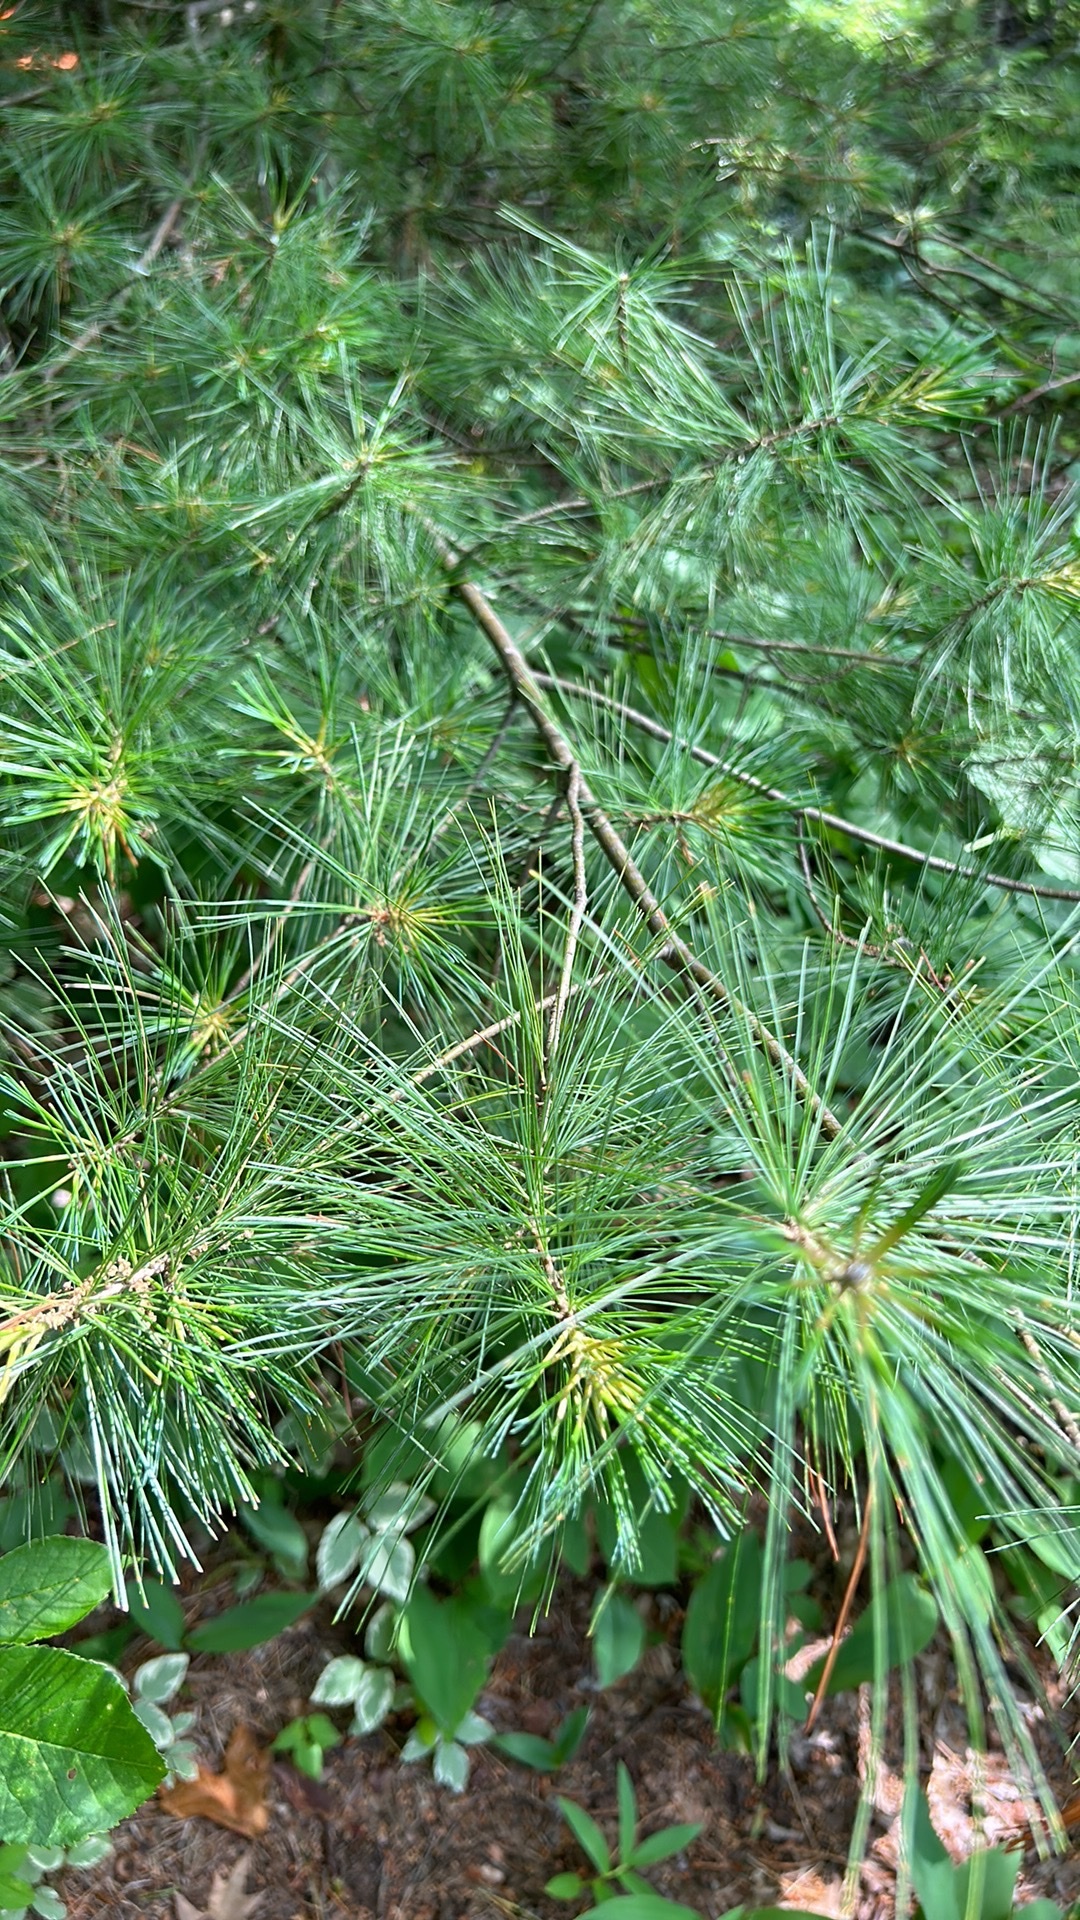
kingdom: Plantae
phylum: Tracheophyta
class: Pinopsida
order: Pinales
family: Pinaceae
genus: Pinus
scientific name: Pinus strobus
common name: Weymouth pine
